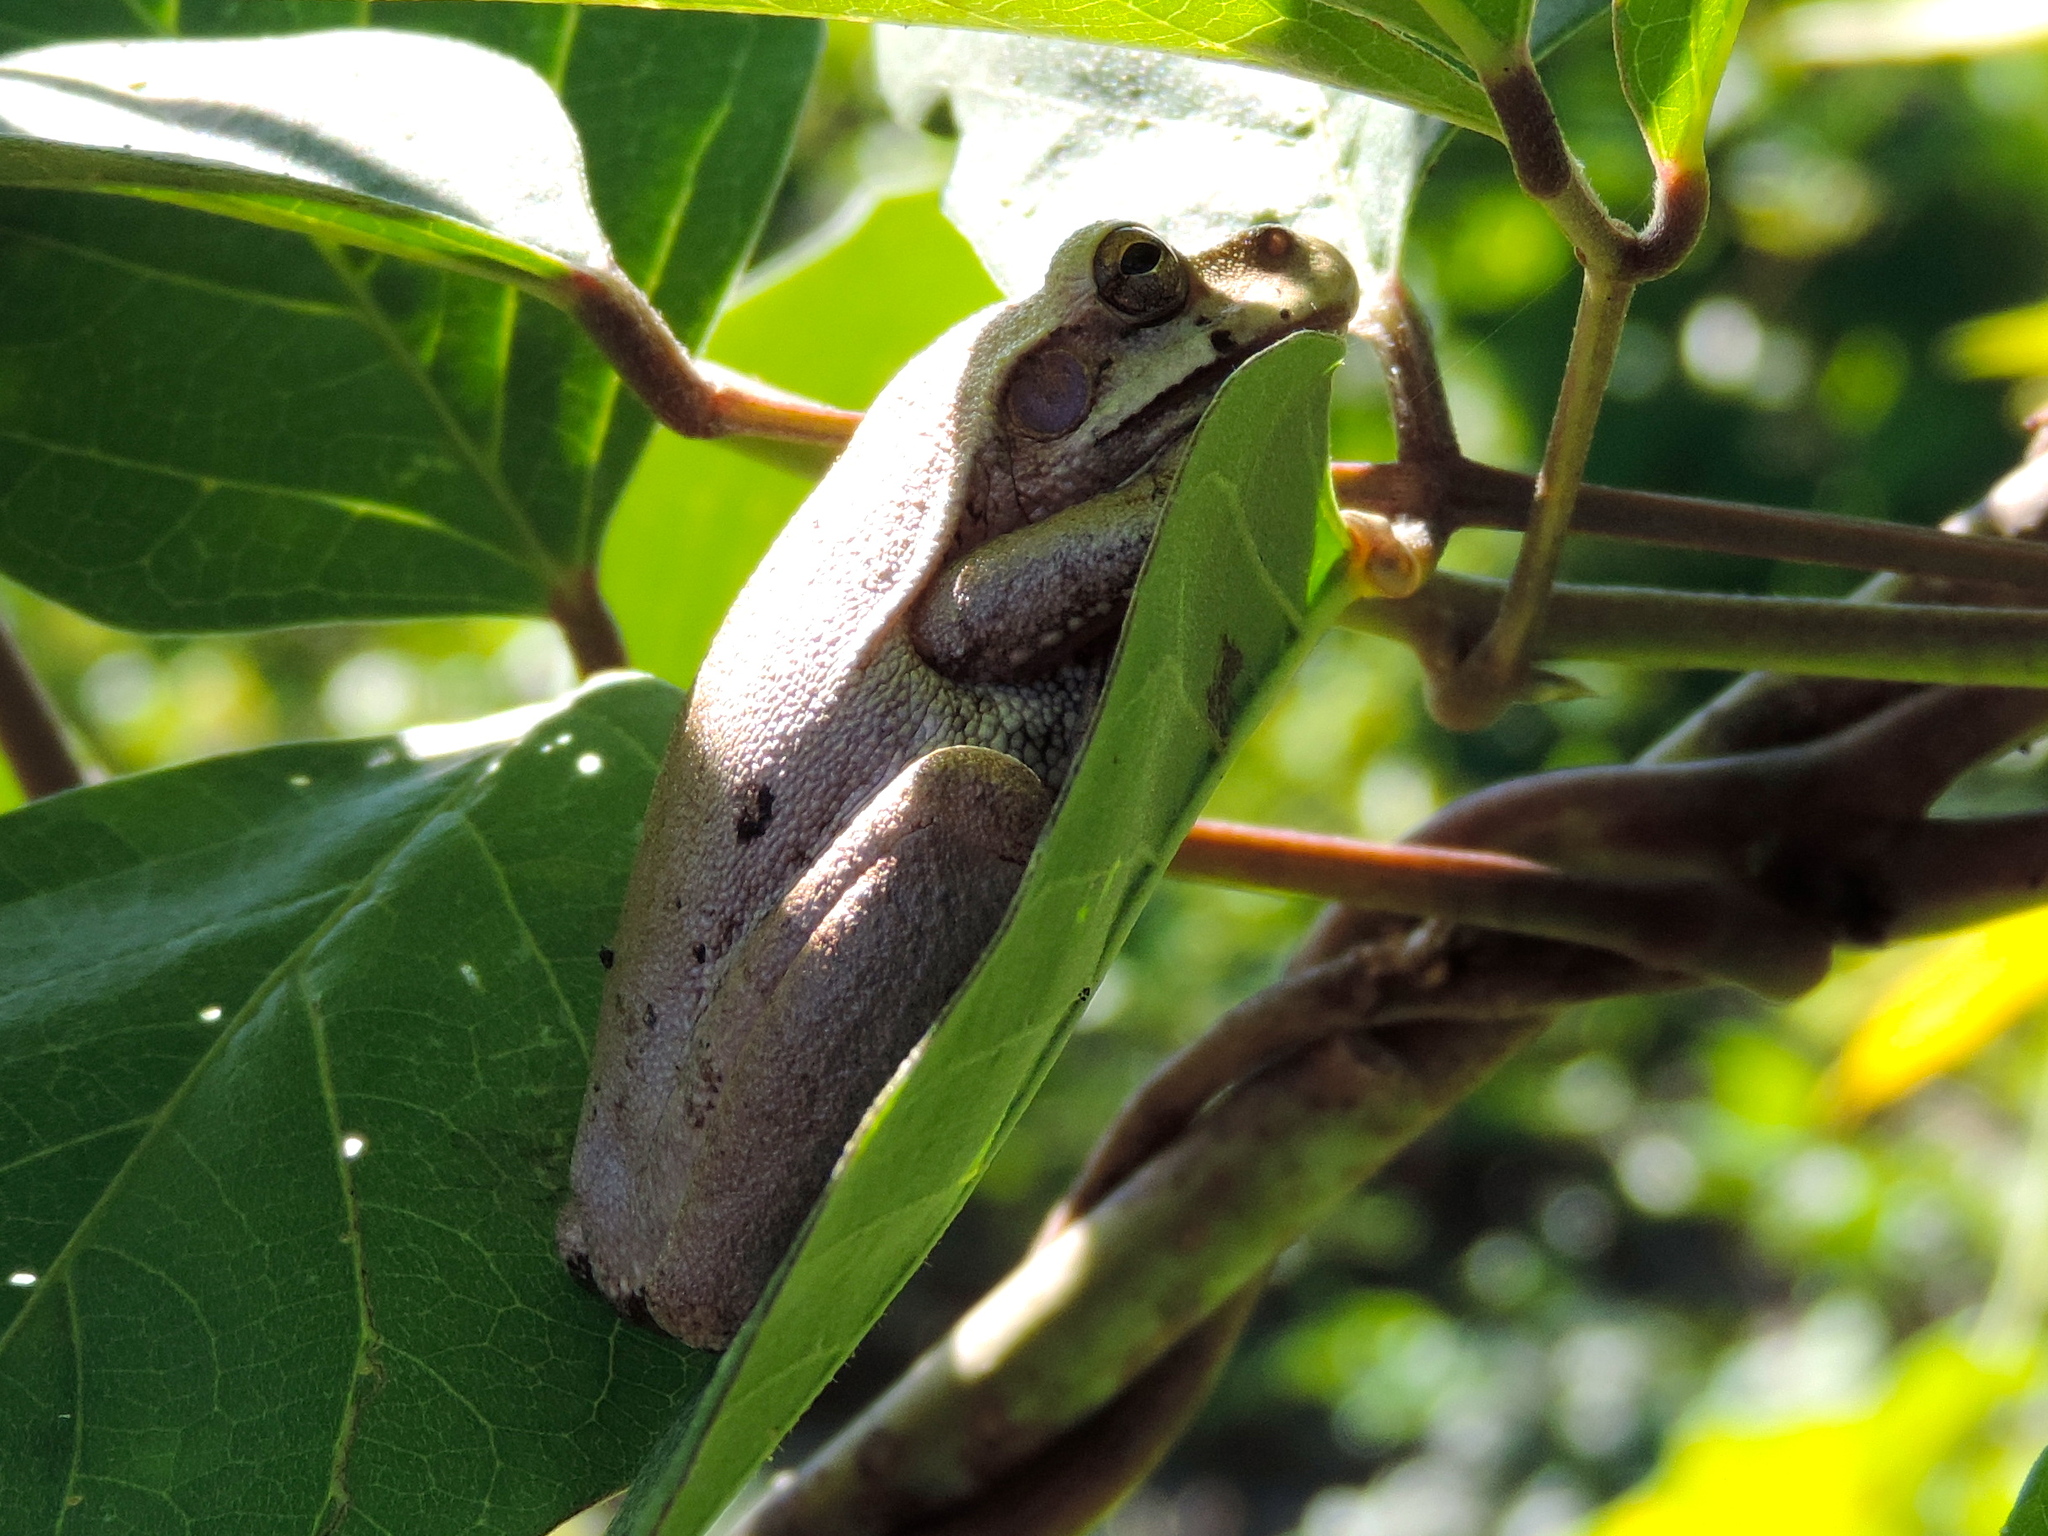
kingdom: Animalia
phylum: Chordata
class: Amphibia
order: Anura
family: Hylidae
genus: Smilisca
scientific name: Smilisca baudinii
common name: Mexican smilisca
